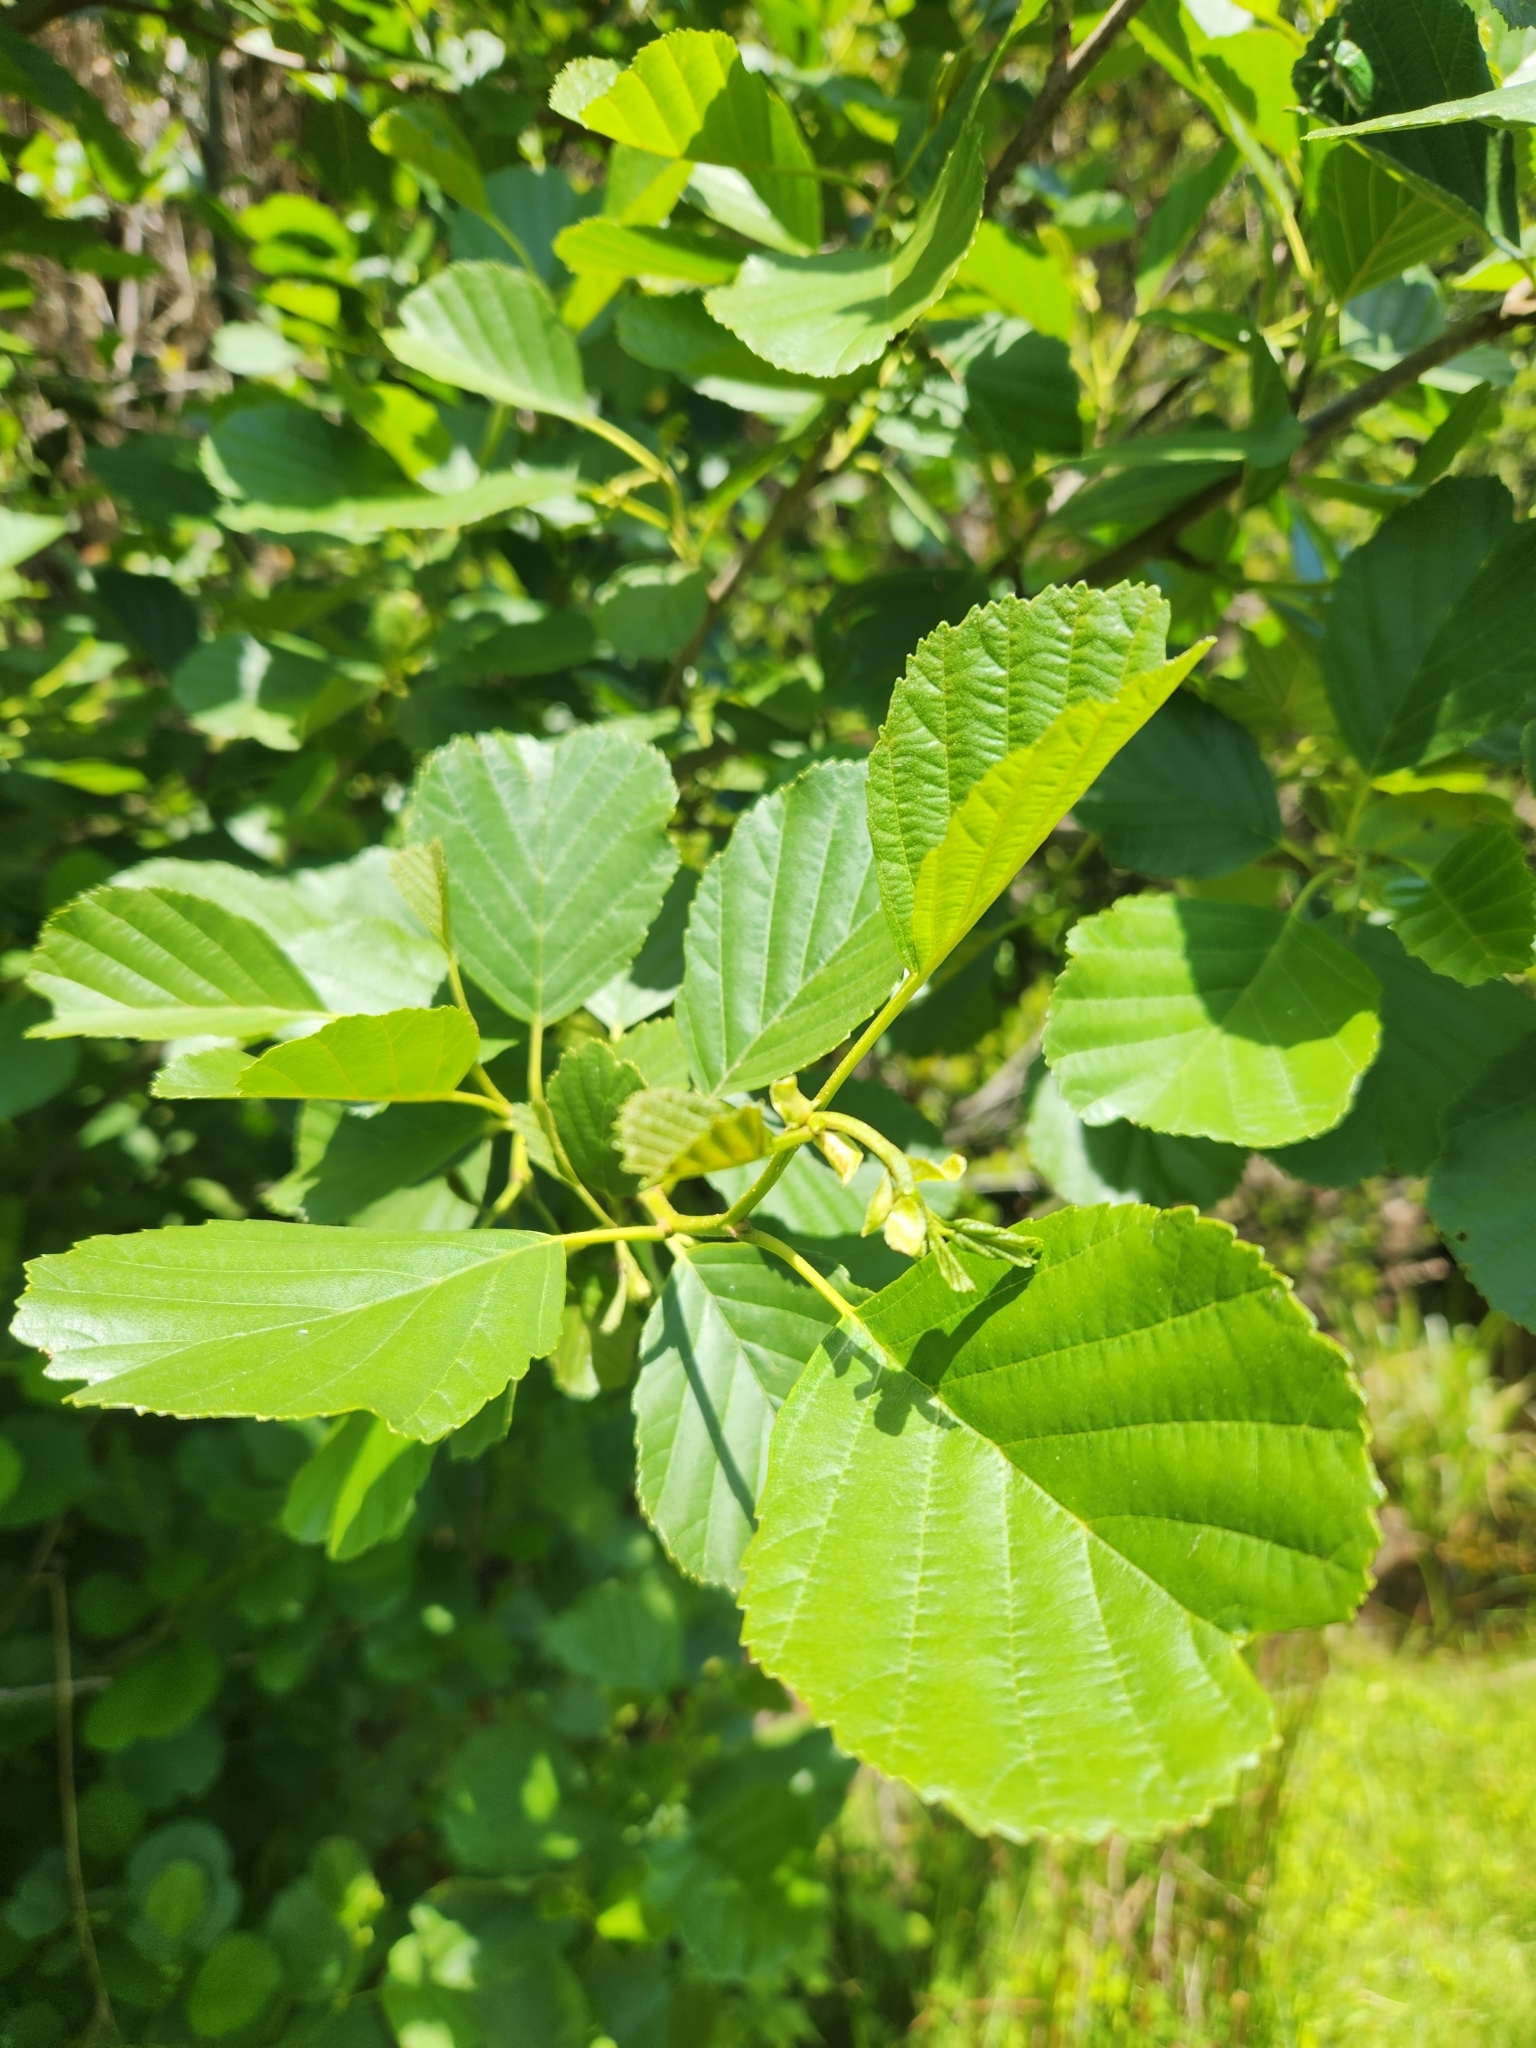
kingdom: Plantae
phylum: Tracheophyta
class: Magnoliopsida
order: Fagales
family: Betulaceae
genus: Alnus
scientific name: Alnus glutinosa
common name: Black alder
